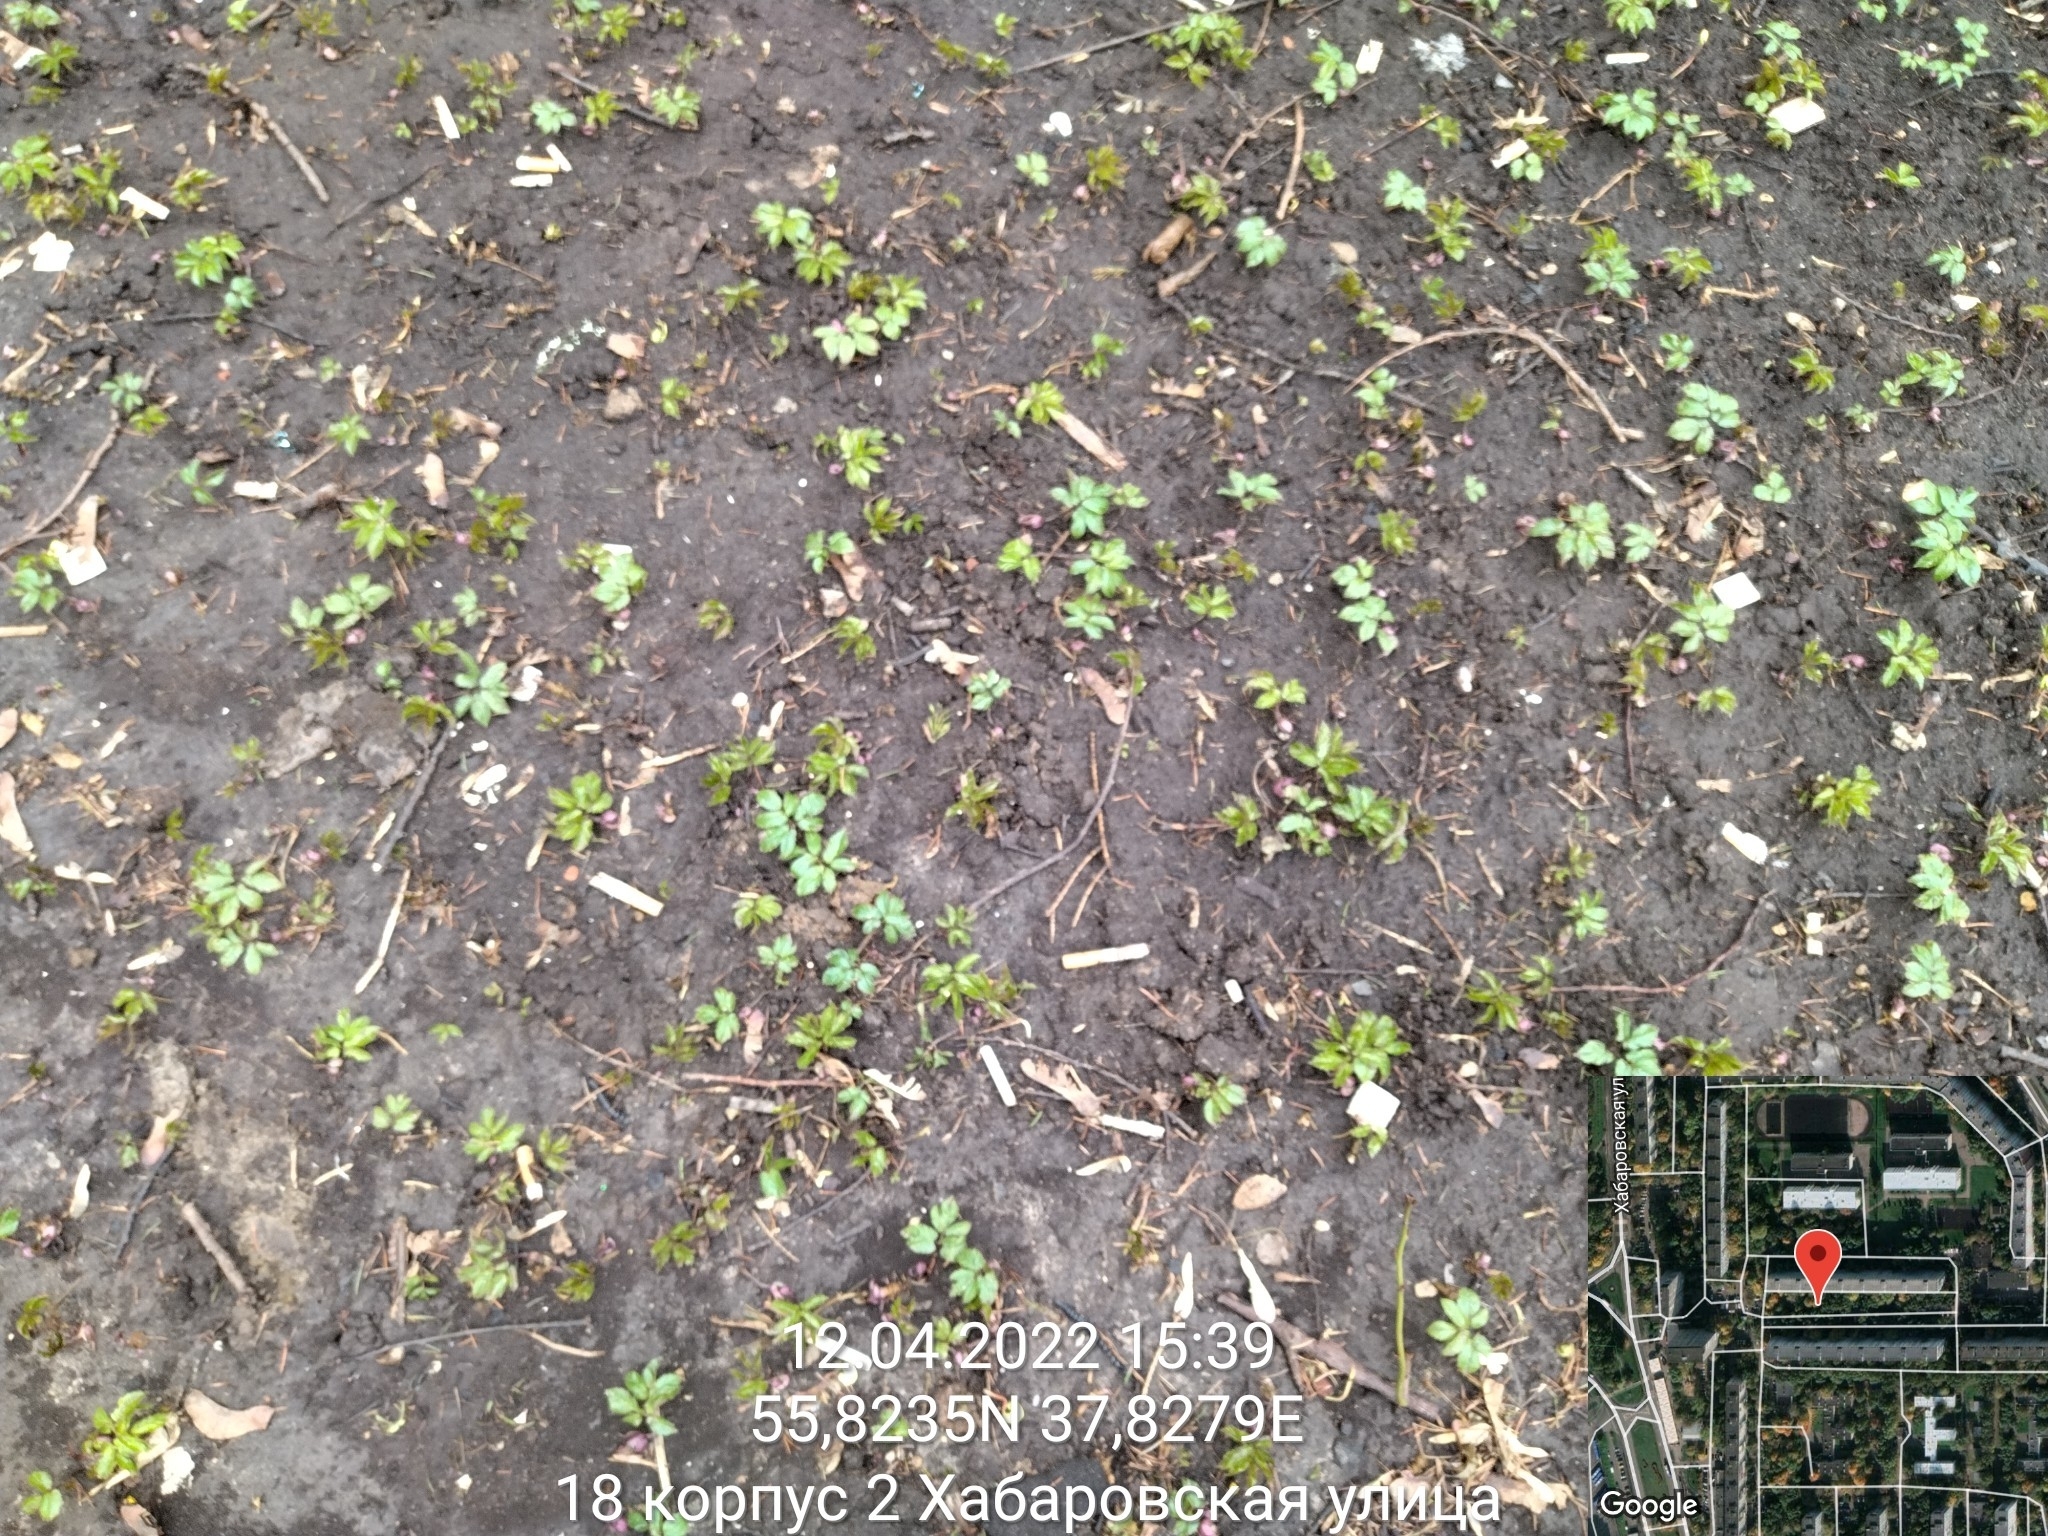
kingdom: Plantae
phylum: Tracheophyta
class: Magnoliopsida
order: Apiales
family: Apiaceae
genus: Aegopodium
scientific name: Aegopodium podagraria
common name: Ground-elder
